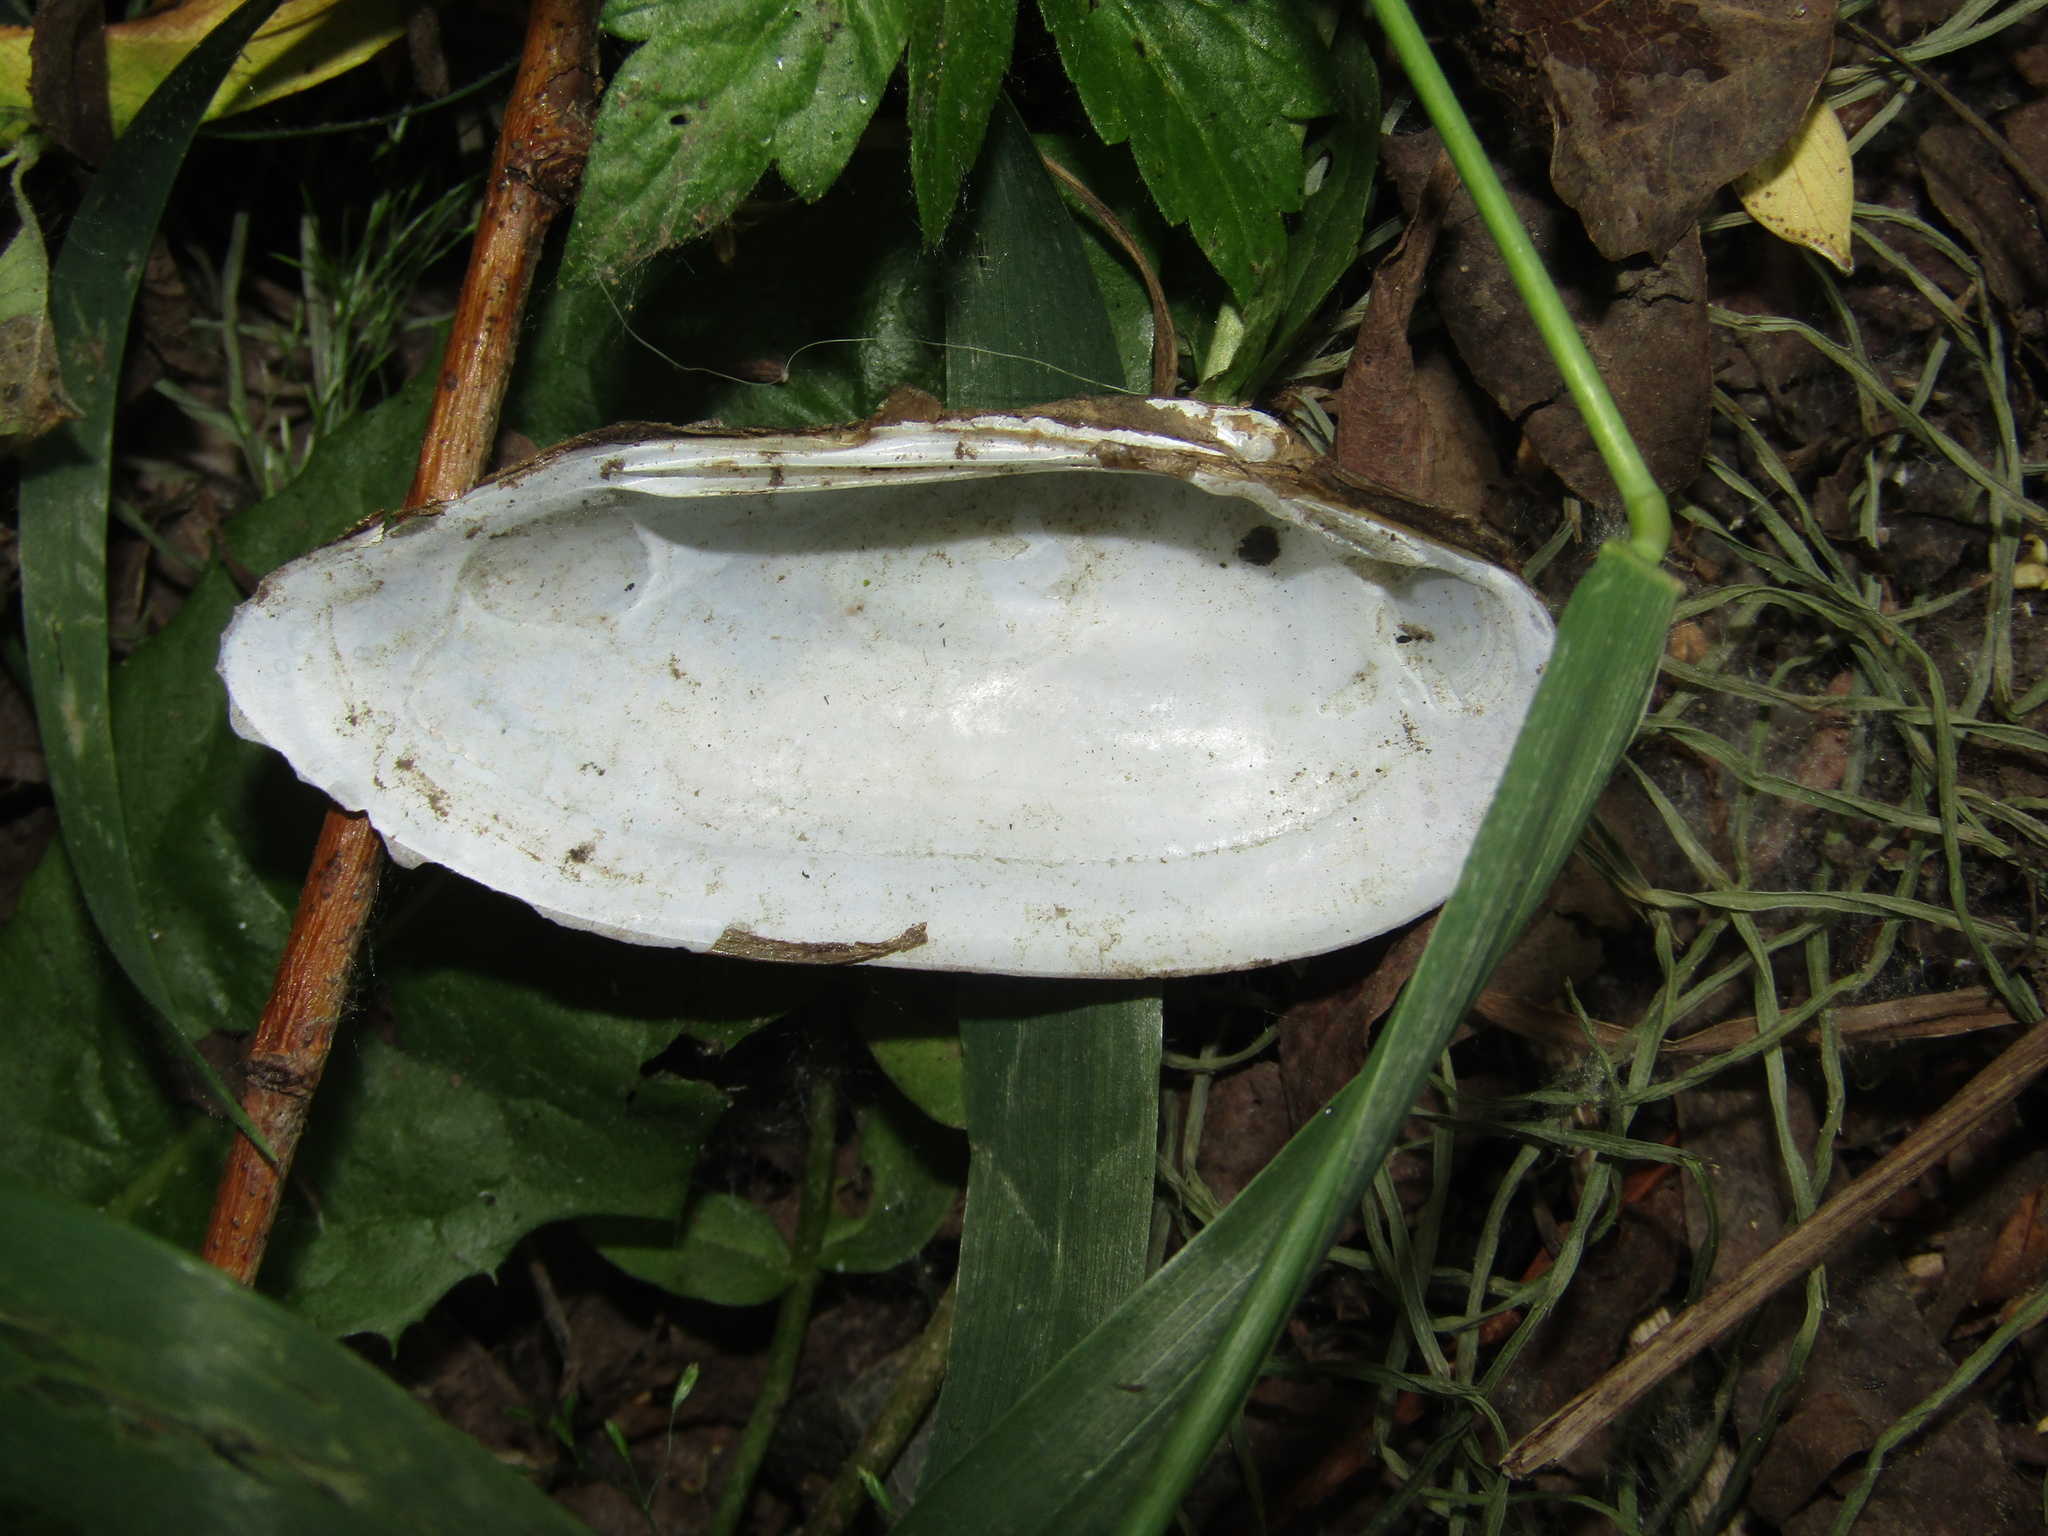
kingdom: Animalia
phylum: Mollusca
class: Bivalvia
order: Unionida
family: Unionidae
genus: Unio
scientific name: Unio pictorum
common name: Painter's mussel
